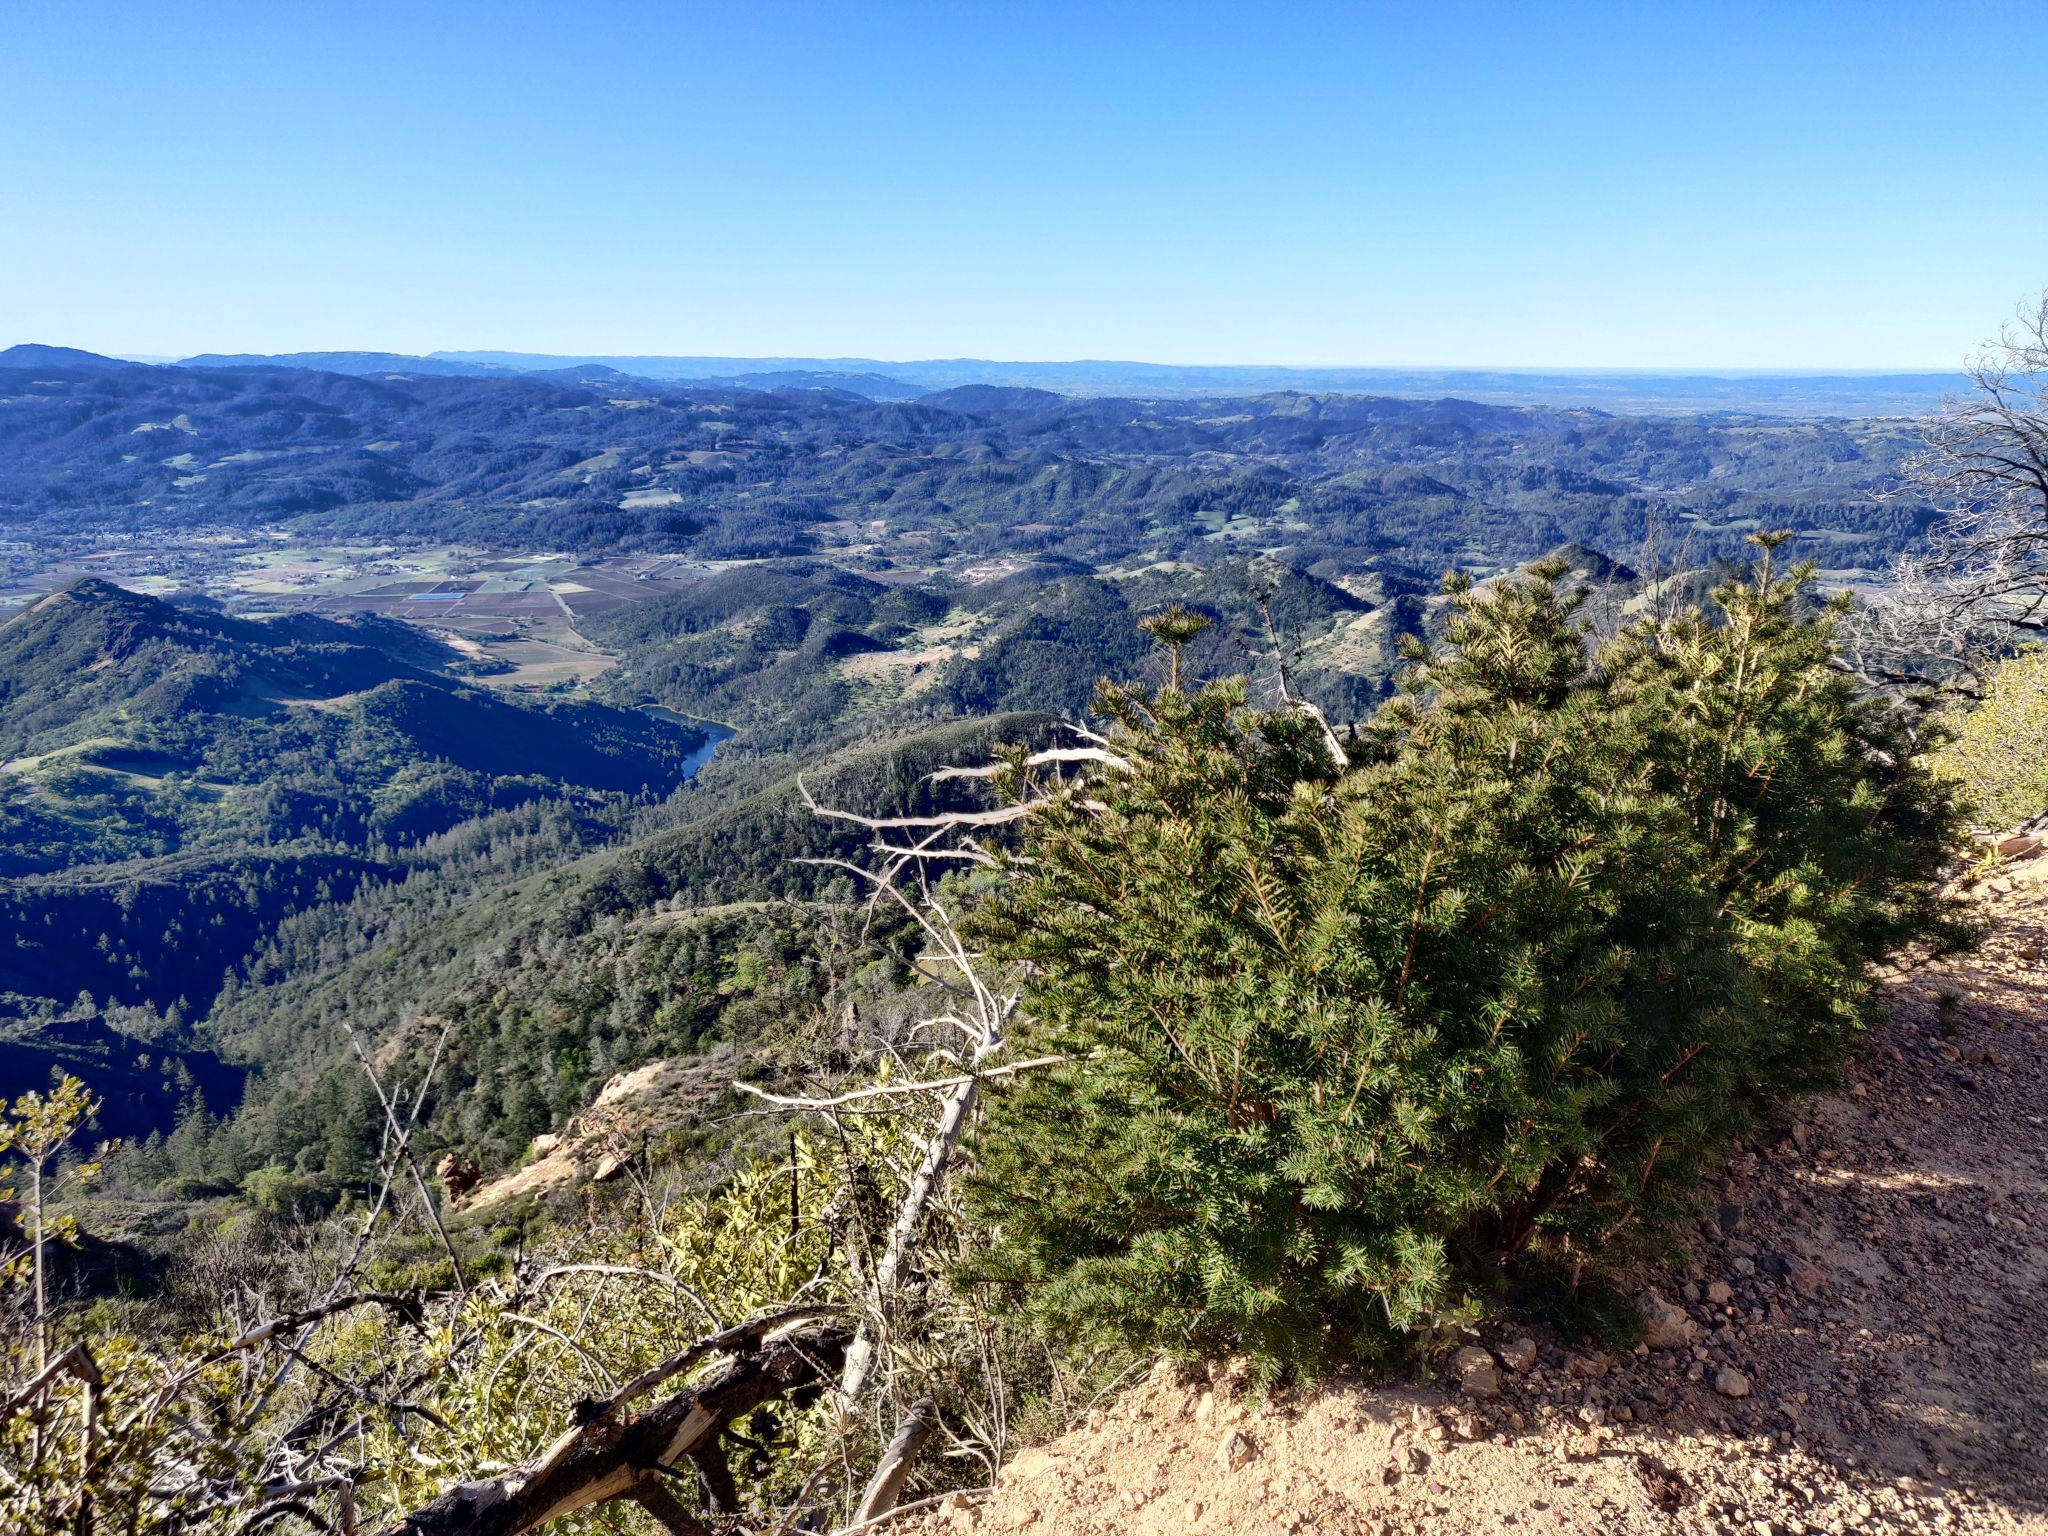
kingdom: Plantae
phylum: Tracheophyta
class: Pinopsida
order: Pinales
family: Taxaceae
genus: Torreya
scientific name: Torreya californica
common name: California torreya
